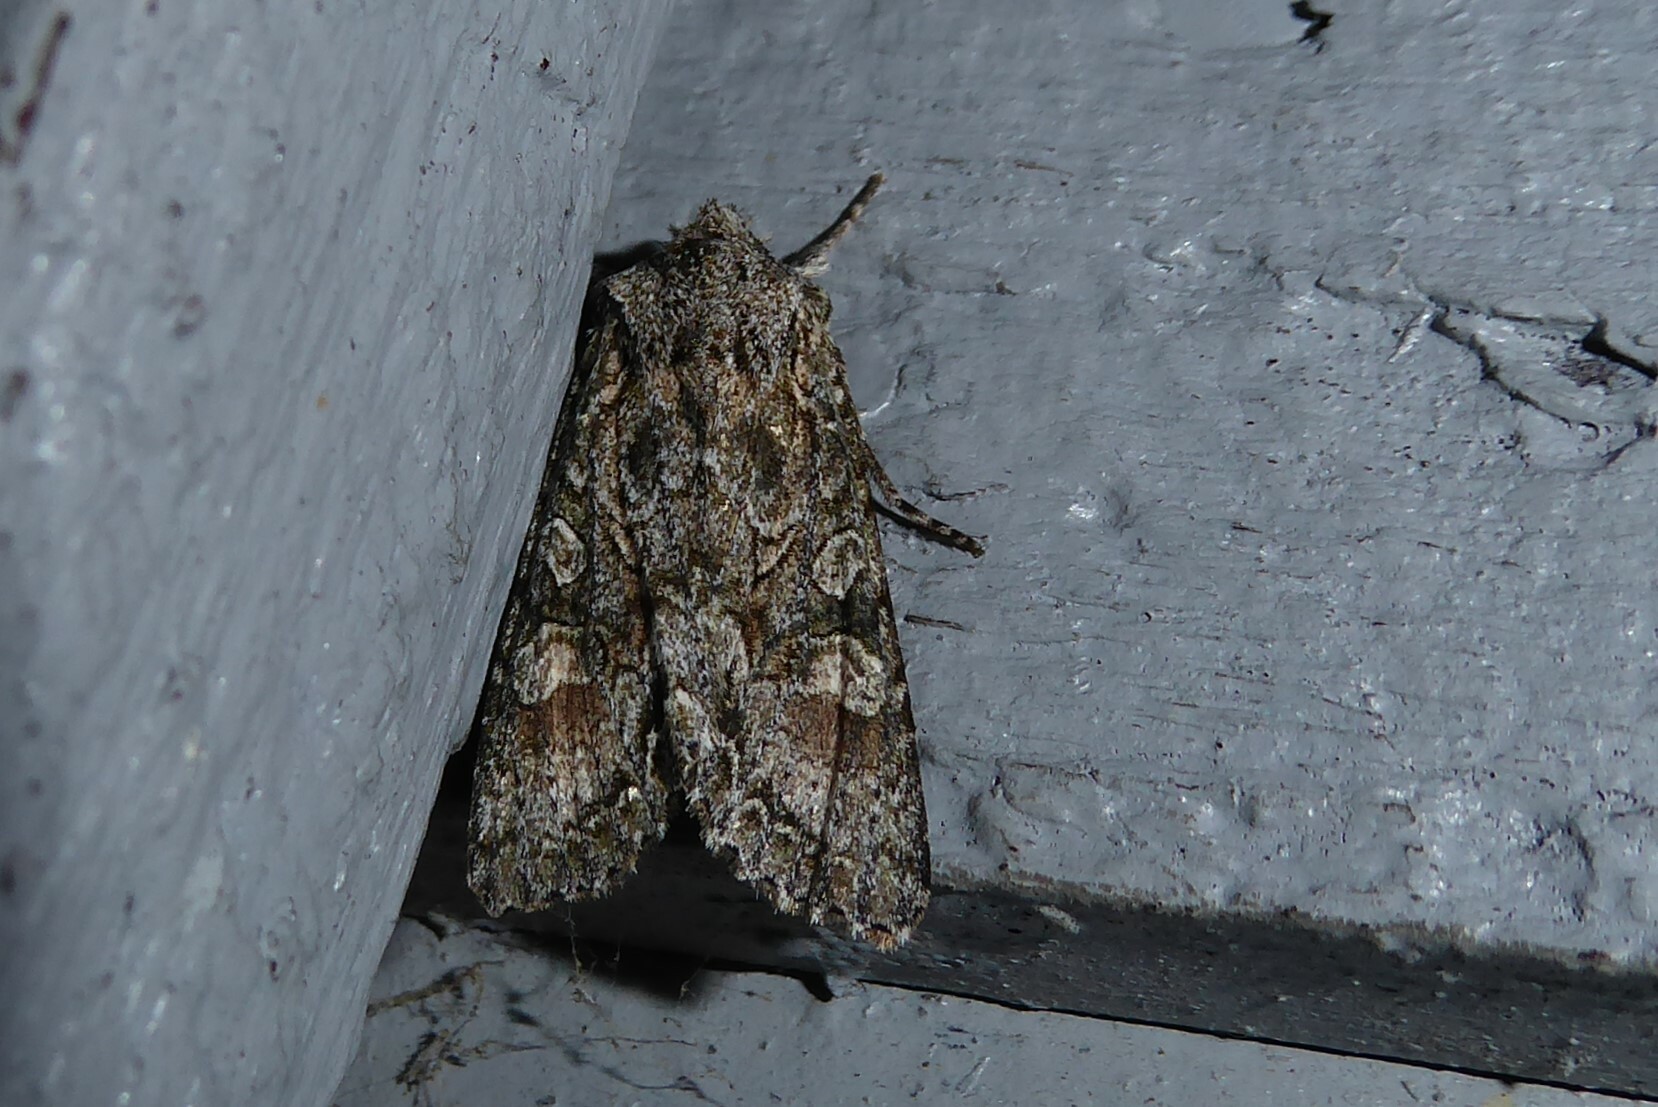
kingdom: Animalia
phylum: Arthropoda
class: Insecta
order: Lepidoptera
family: Noctuidae
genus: Ichneutica
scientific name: Ichneutica mutans
